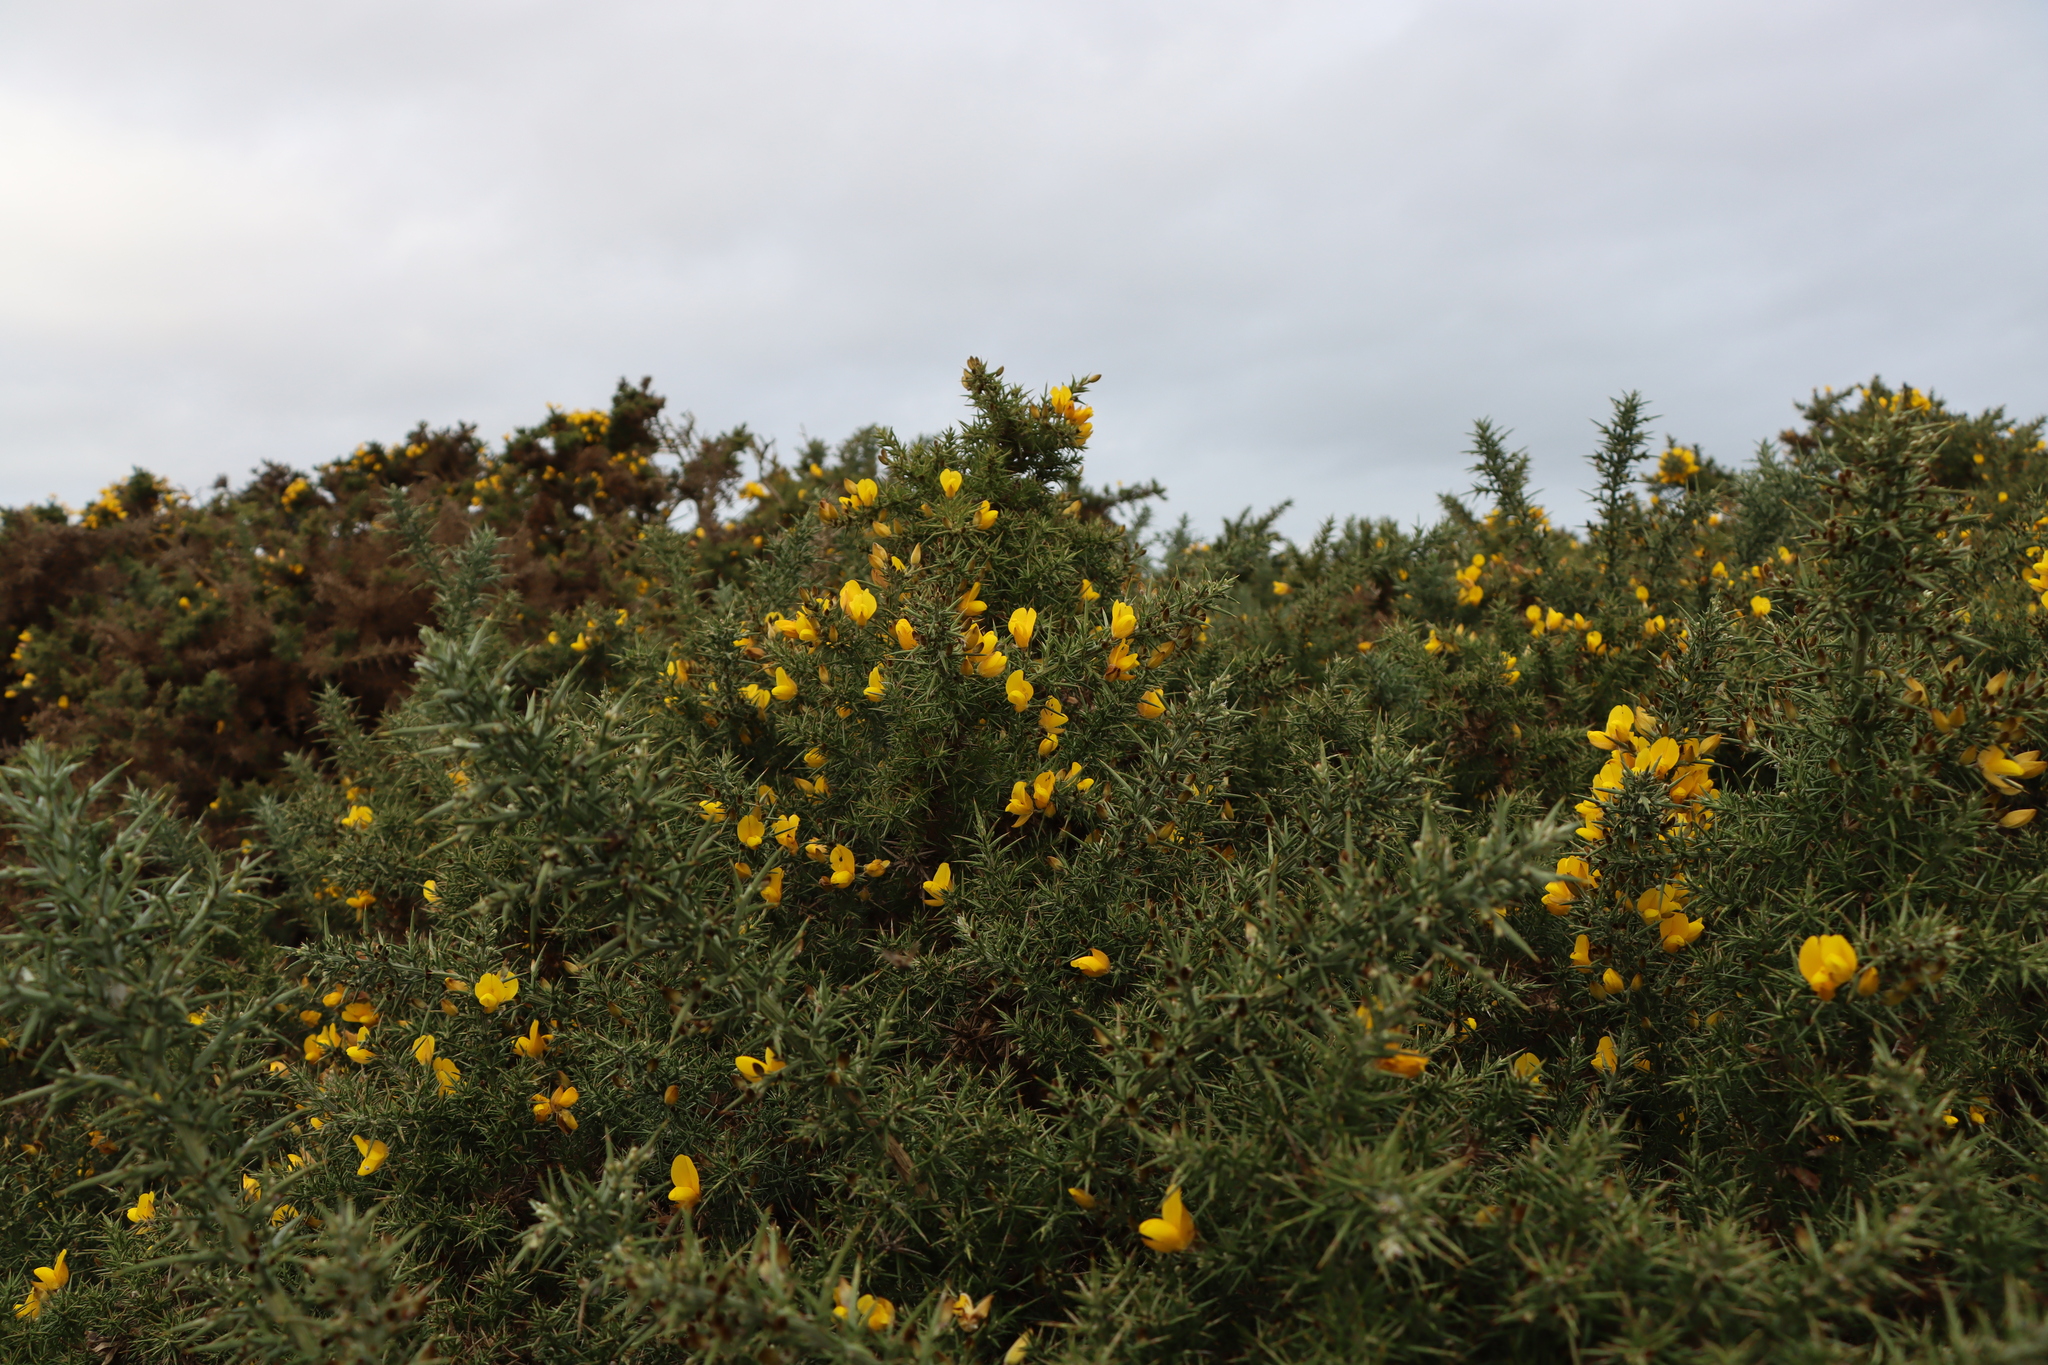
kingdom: Plantae
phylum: Tracheophyta
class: Magnoliopsida
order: Fabales
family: Fabaceae
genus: Ulex
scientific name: Ulex europaeus
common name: Common gorse
